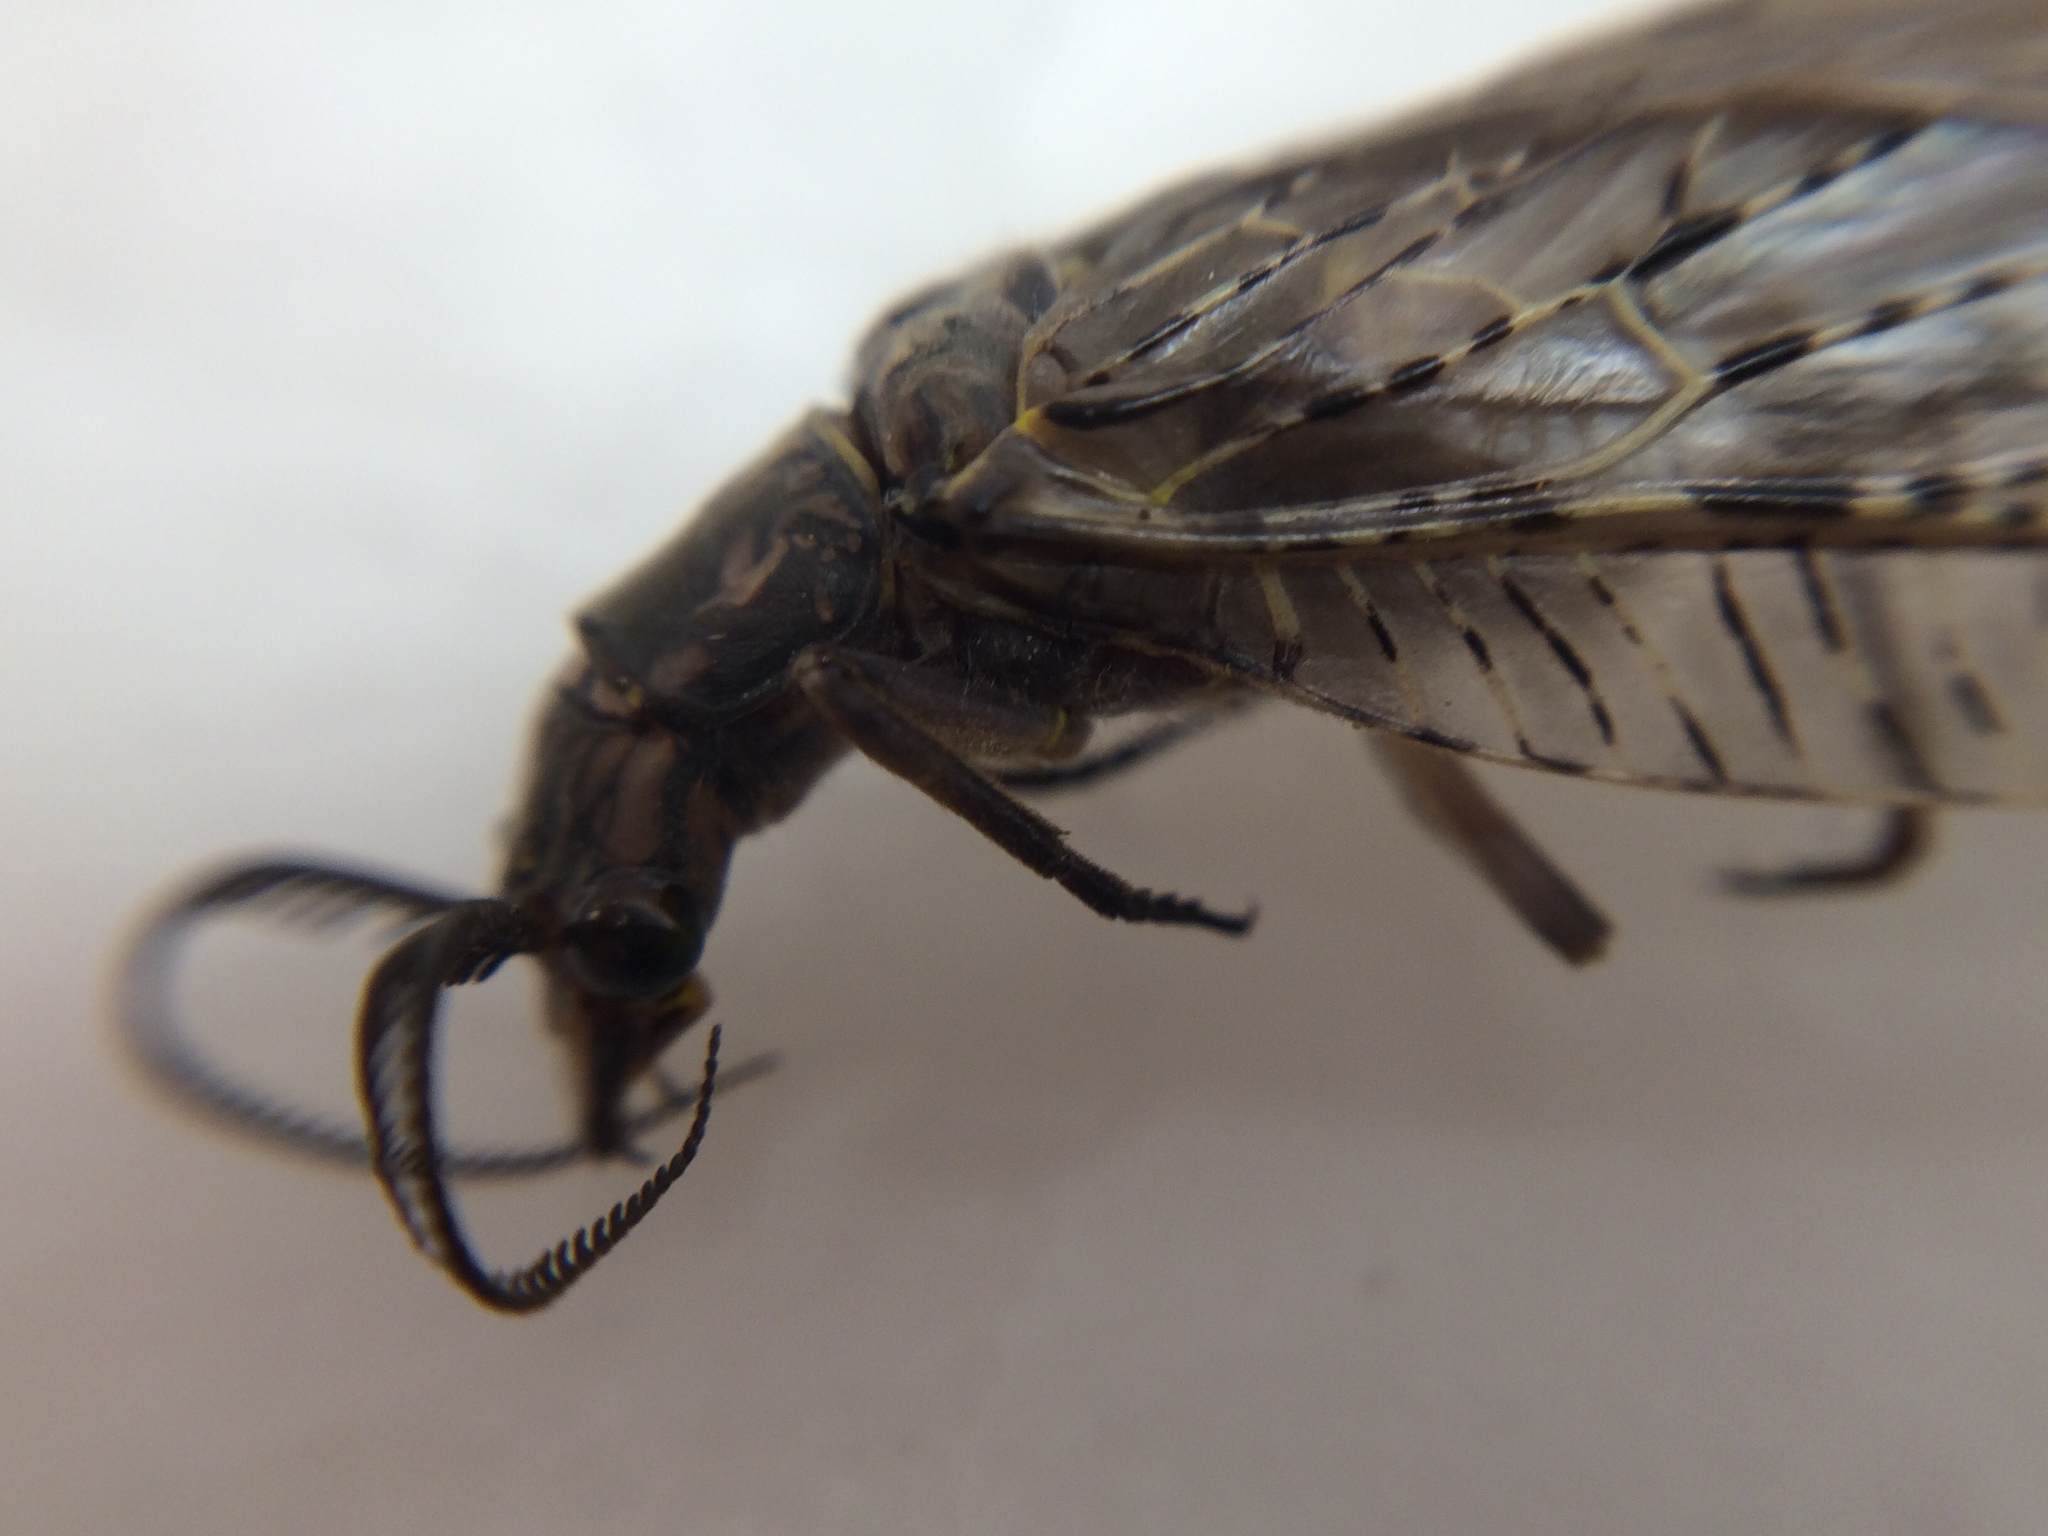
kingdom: Animalia
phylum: Arthropoda
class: Insecta
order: Megaloptera
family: Corydalidae
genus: Chauliodes
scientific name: Chauliodes pectinicornis
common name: Summer fishfly
